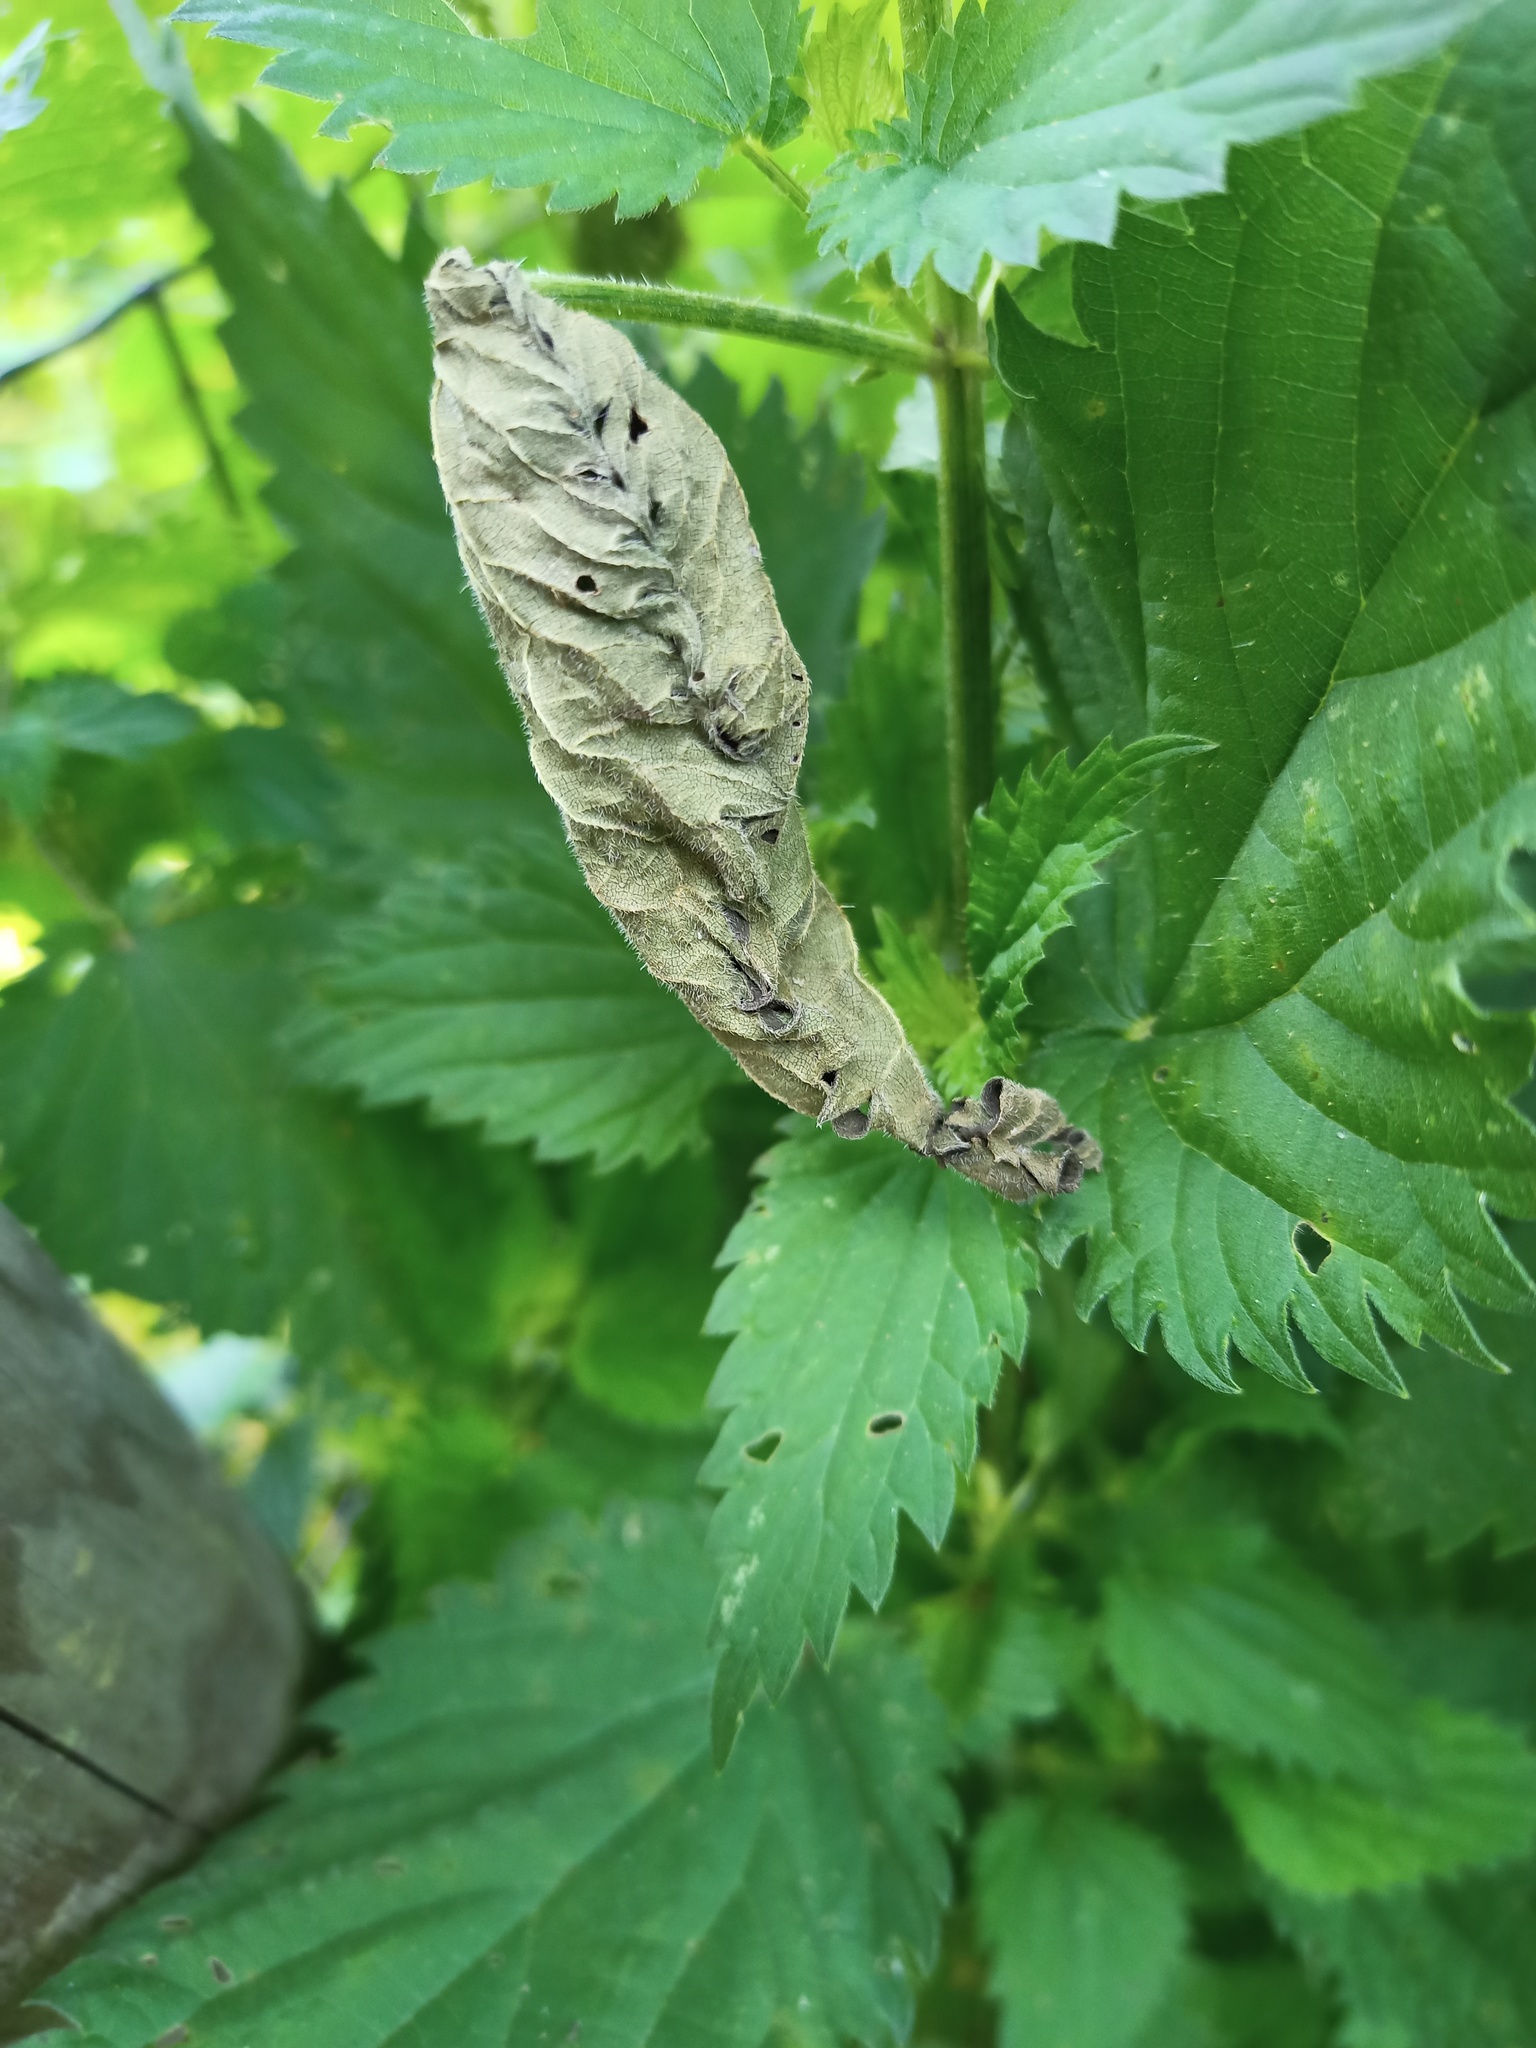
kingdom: Animalia
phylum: Arthropoda
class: Insecta
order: Lepidoptera
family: Nymphalidae
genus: Vanessa
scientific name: Vanessa atalanta
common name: Red admiral
